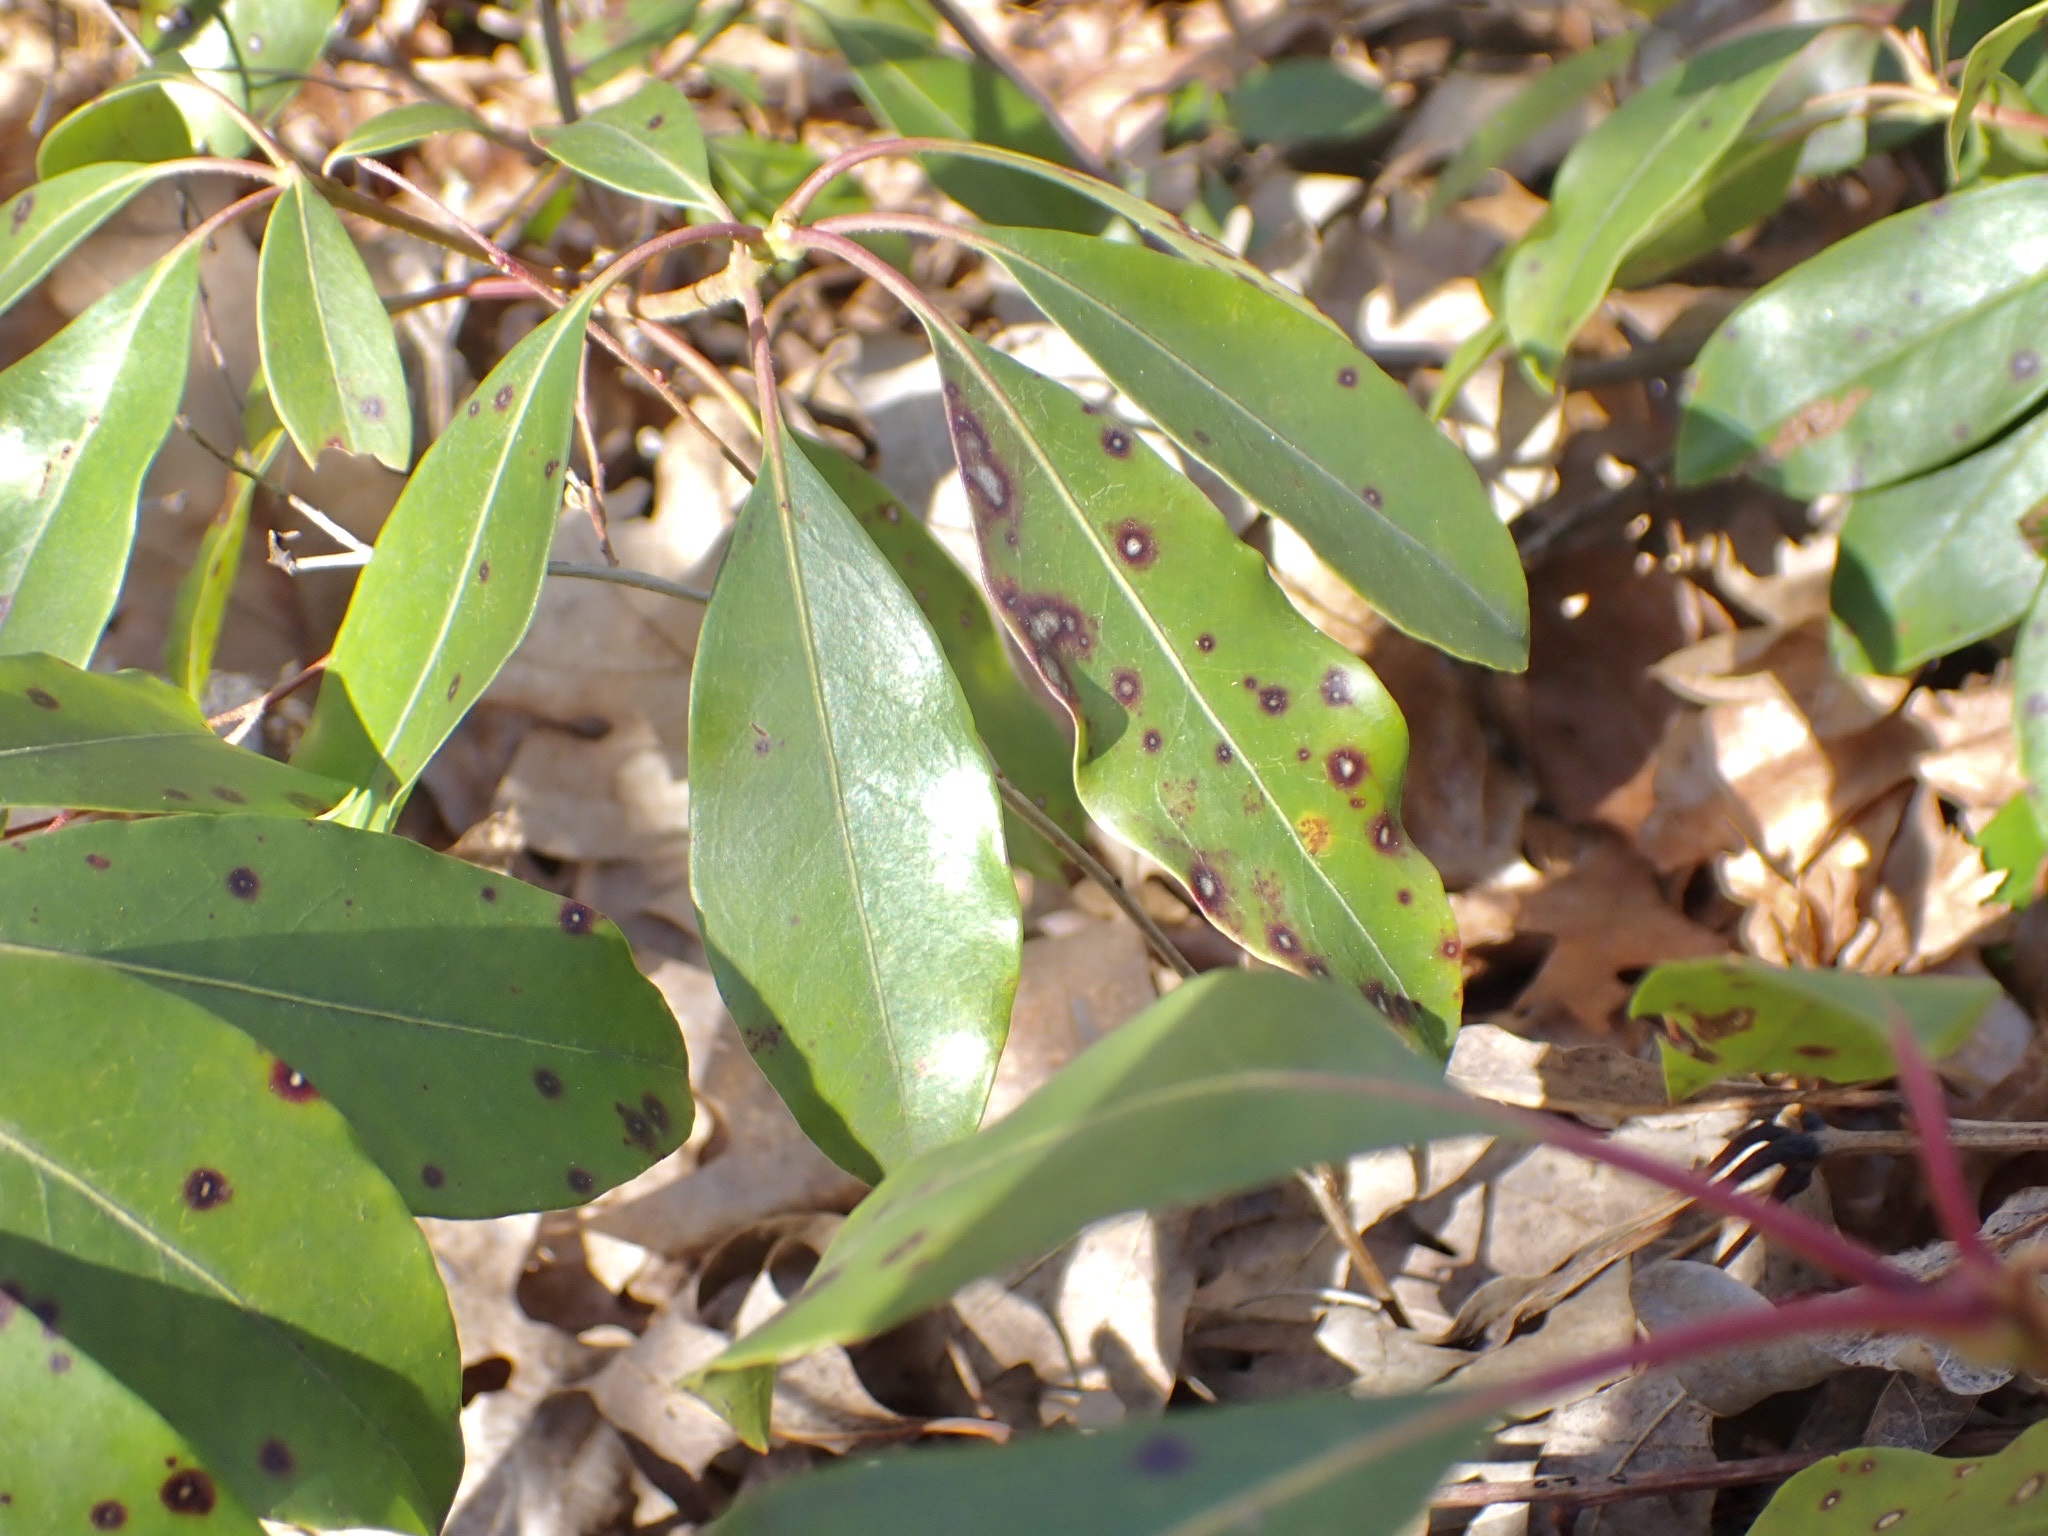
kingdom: Fungi
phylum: Ascomycota
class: Dothideomycetes
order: Mycosphaerellales
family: Mycosphaerellaceae
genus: Mycosphaerella
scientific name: Mycosphaerella colorata
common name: Mountain laurel leaf spot
